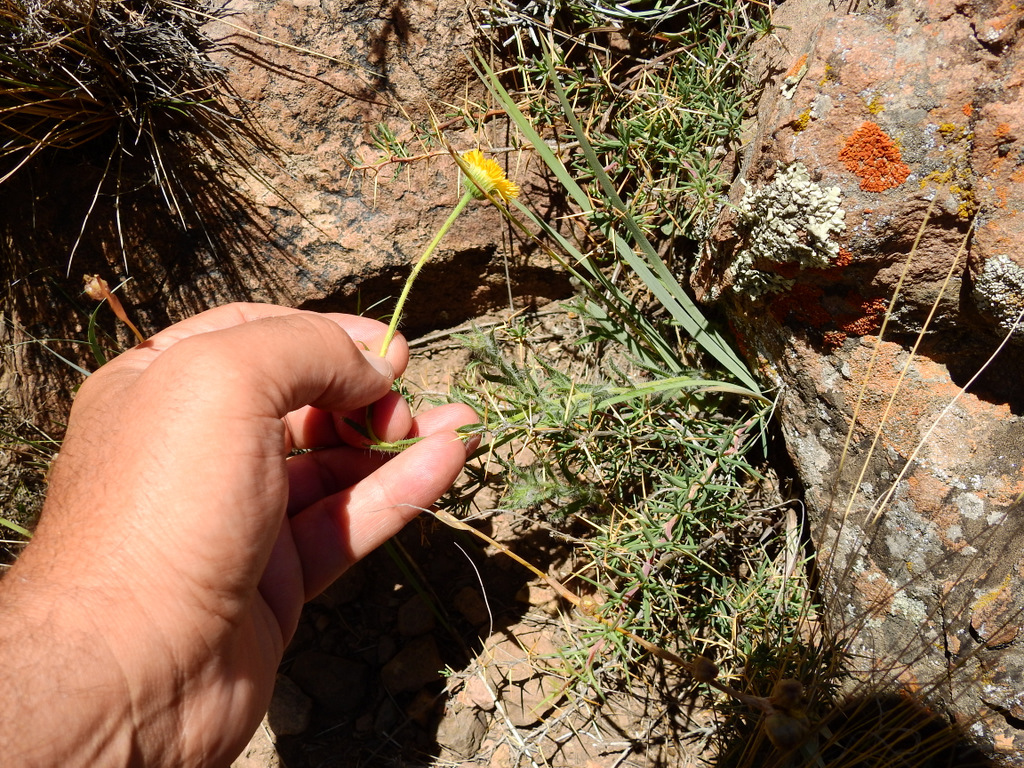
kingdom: Plantae
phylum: Tracheophyta
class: Magnoliopsida
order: Asterales
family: Asteraceae
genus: Hysterionica
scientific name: Hysterionica jasionoides
